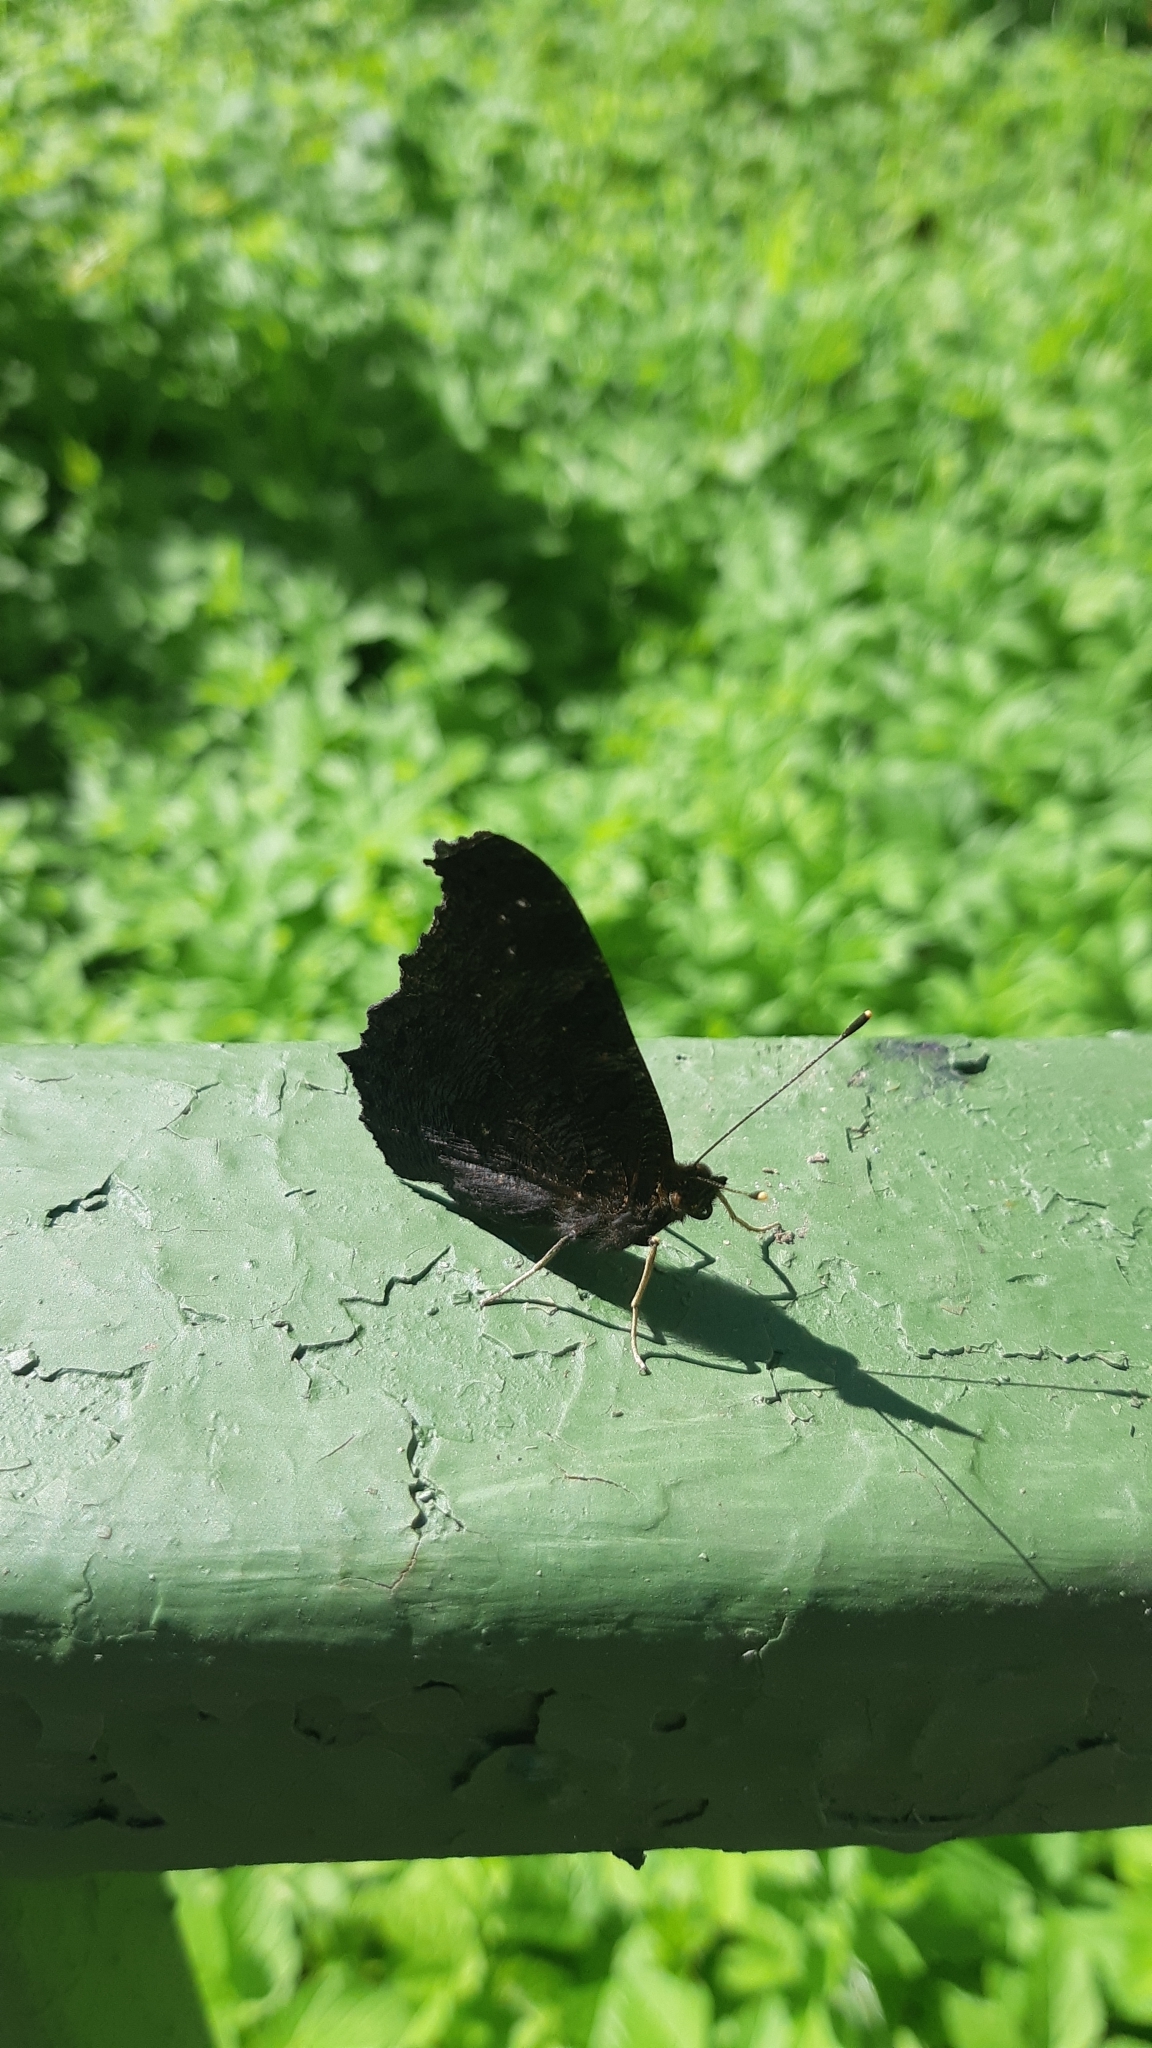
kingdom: Animalia
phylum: Arthropoda
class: Insecta
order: Lepidoptera
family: Nymphalidae
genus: Aglais
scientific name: Aglais io
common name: Peacock
